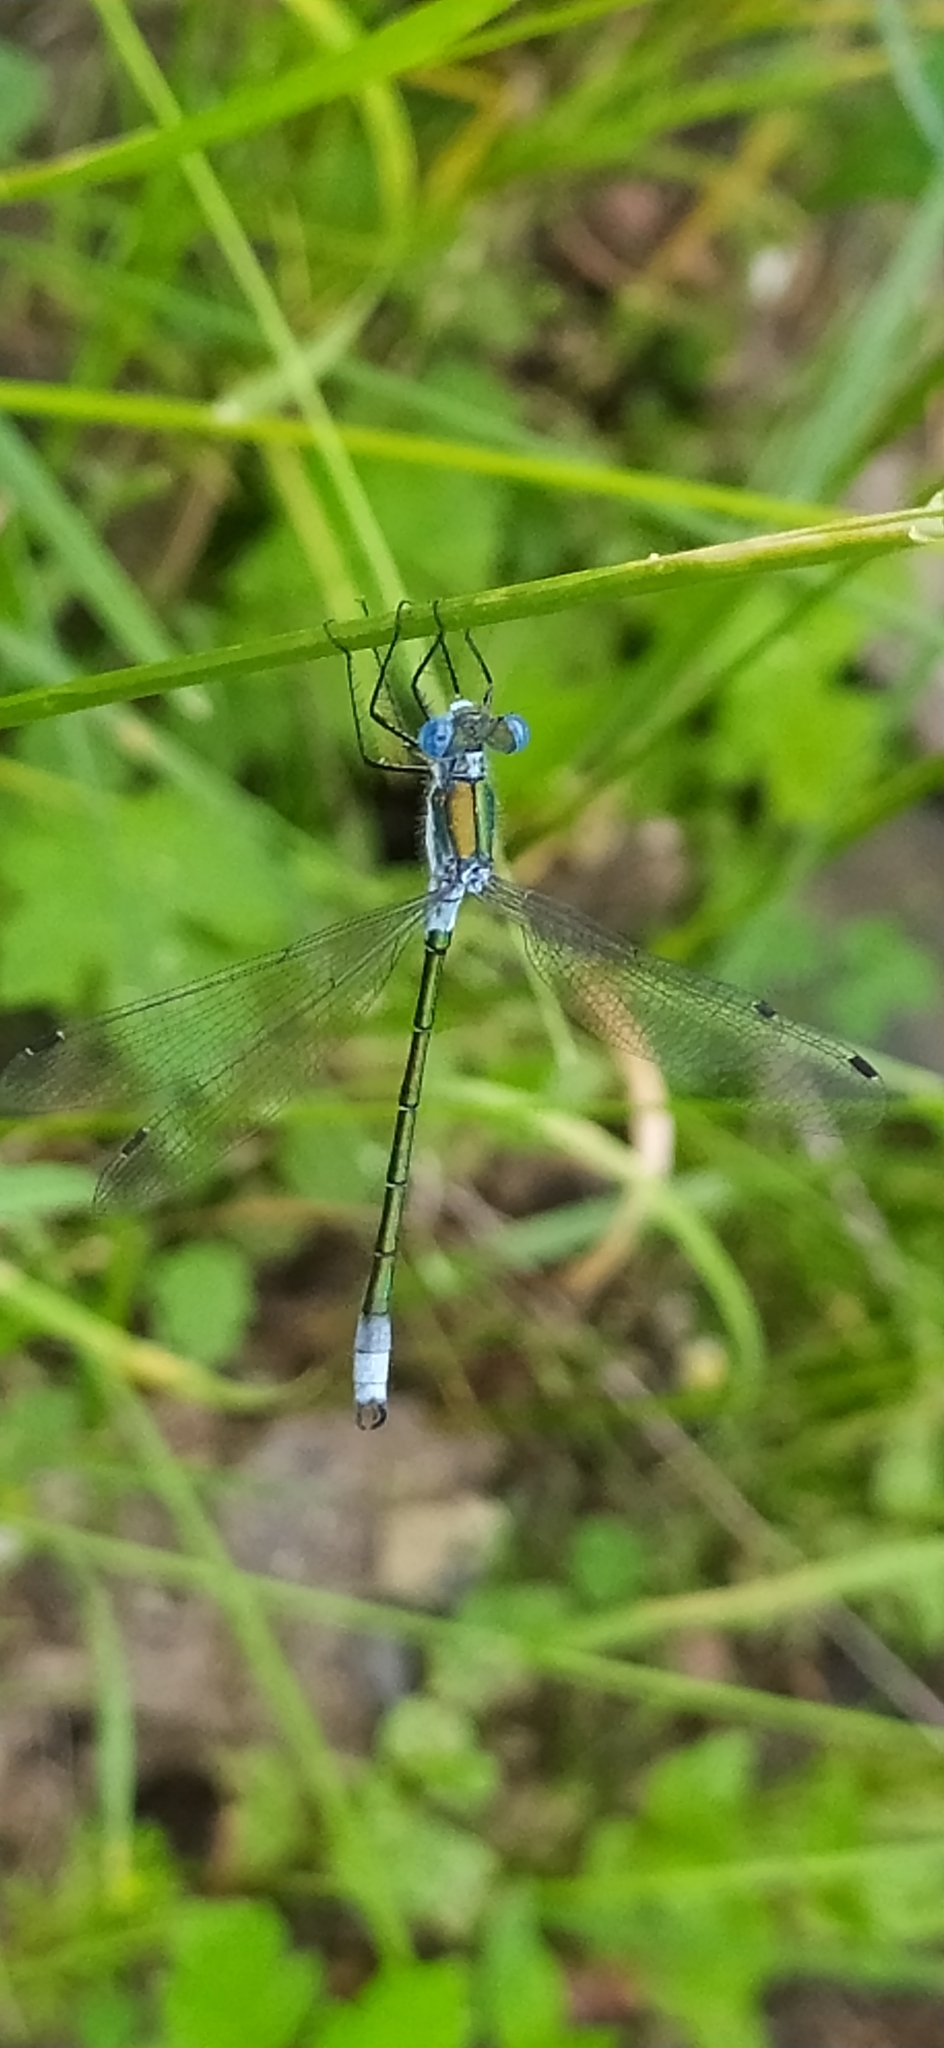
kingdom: Animalia
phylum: Arthropoda
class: Insecta
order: Odonata
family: Lestidae
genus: Lestes
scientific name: Lestes dryas
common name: Scarce emerald damselfly
